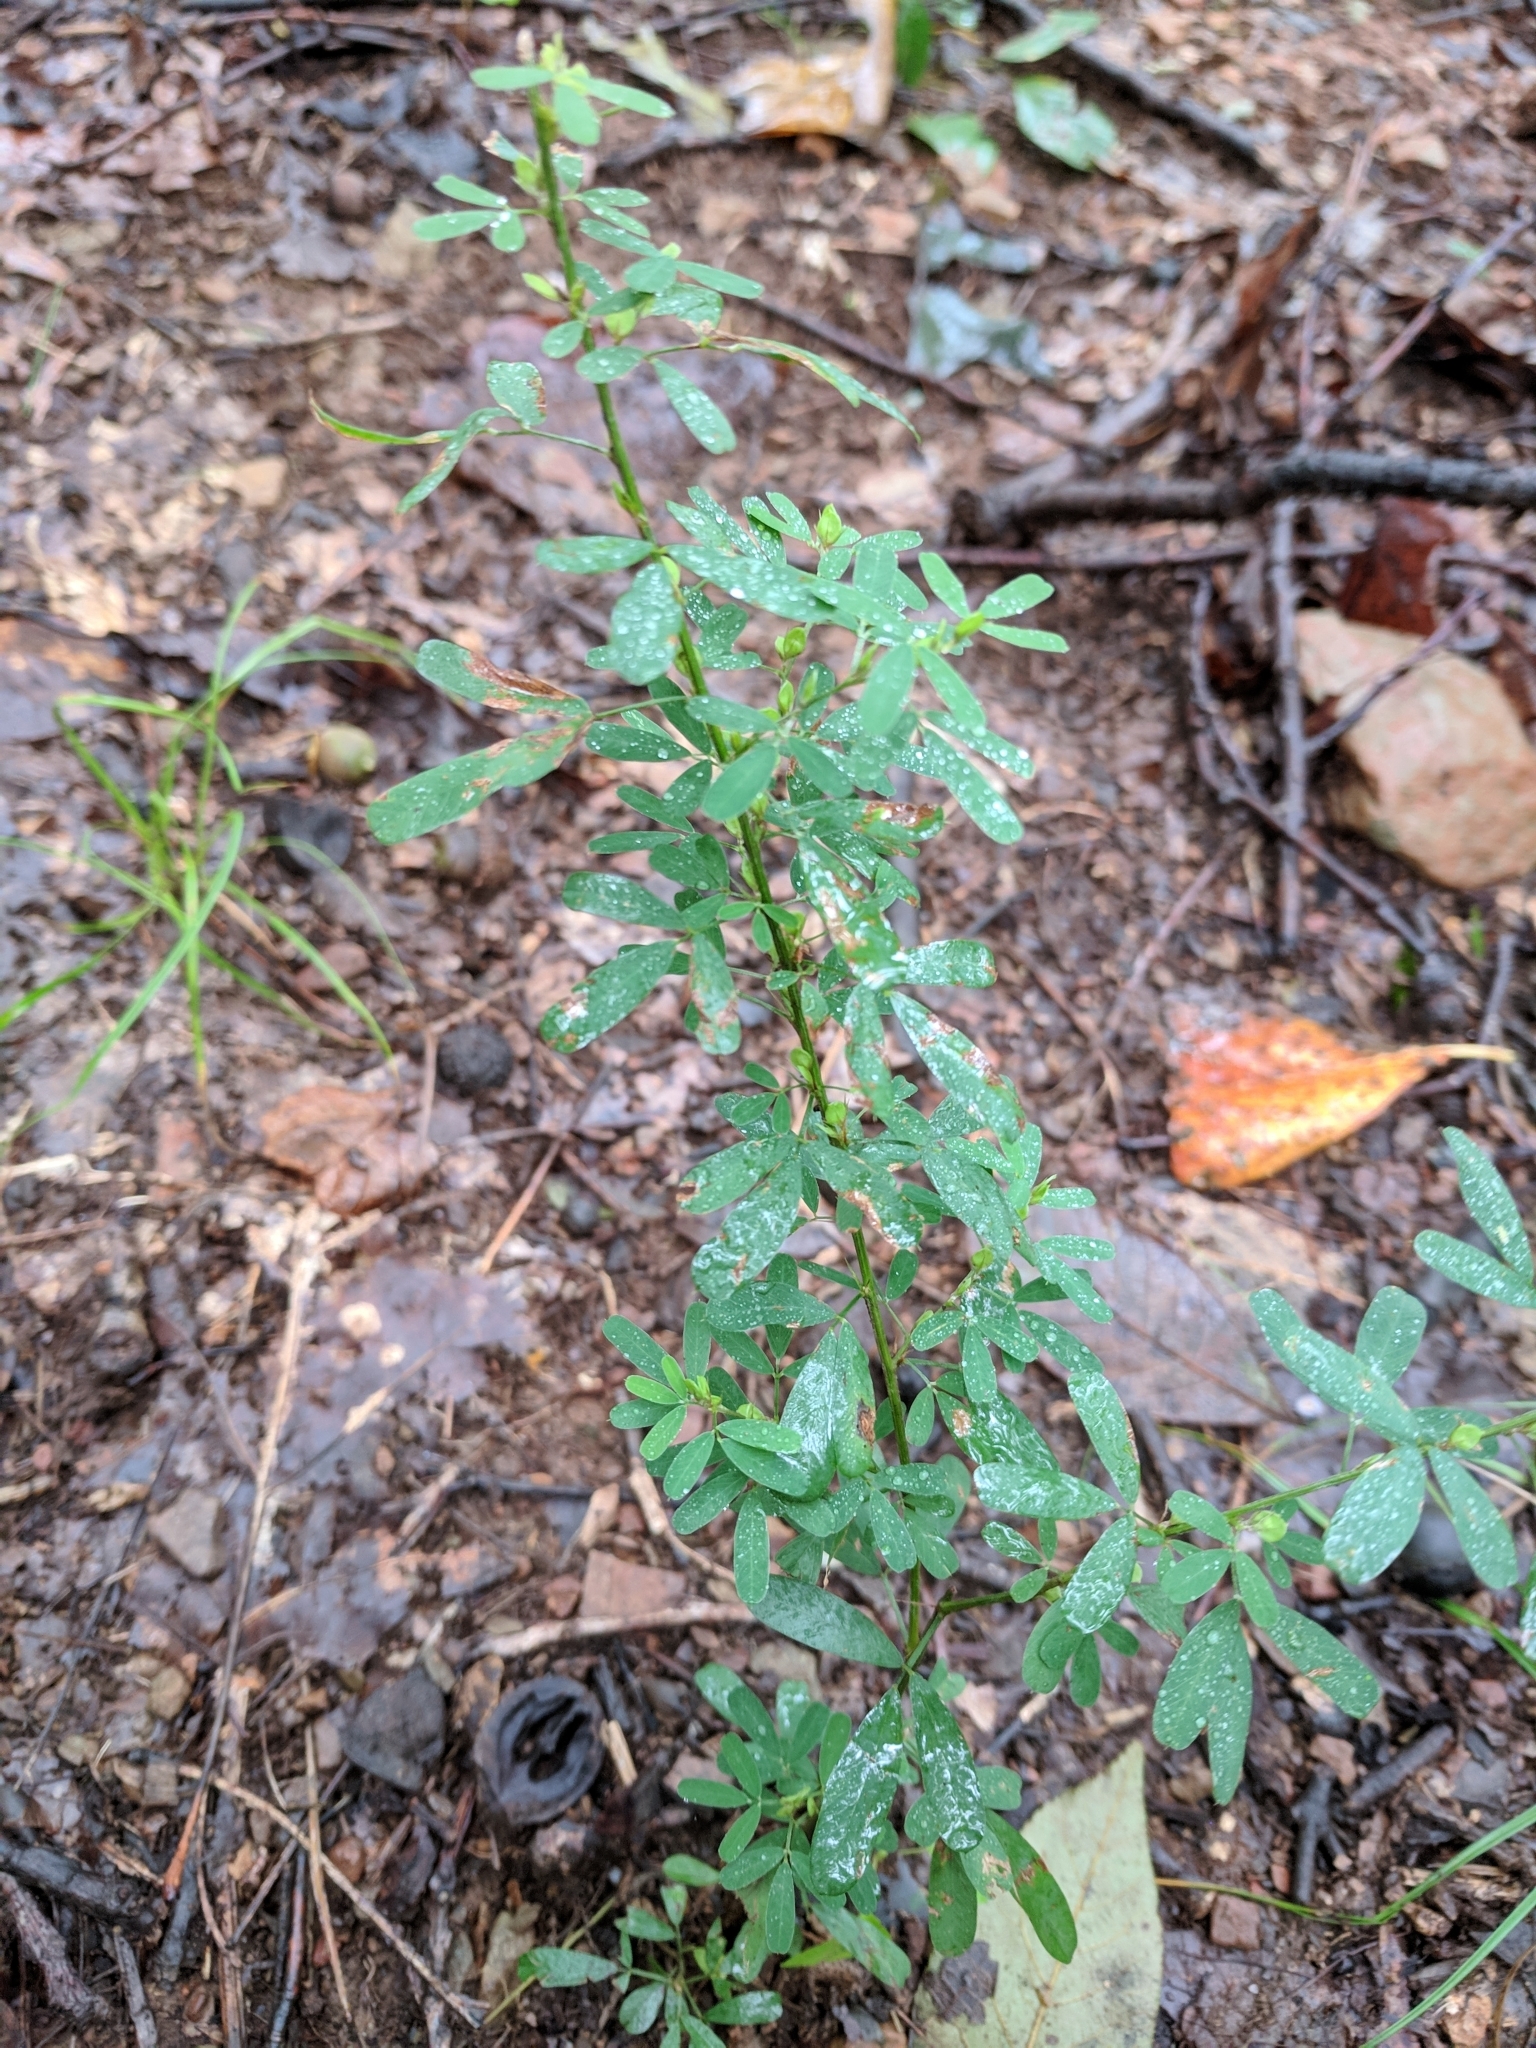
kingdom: Plantae
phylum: Tracheophyta
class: Magnoliopsida
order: Fabales
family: Fabaceae
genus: Lespedeza
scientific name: Lespedeza cuneata
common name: Chinese bush-clover
